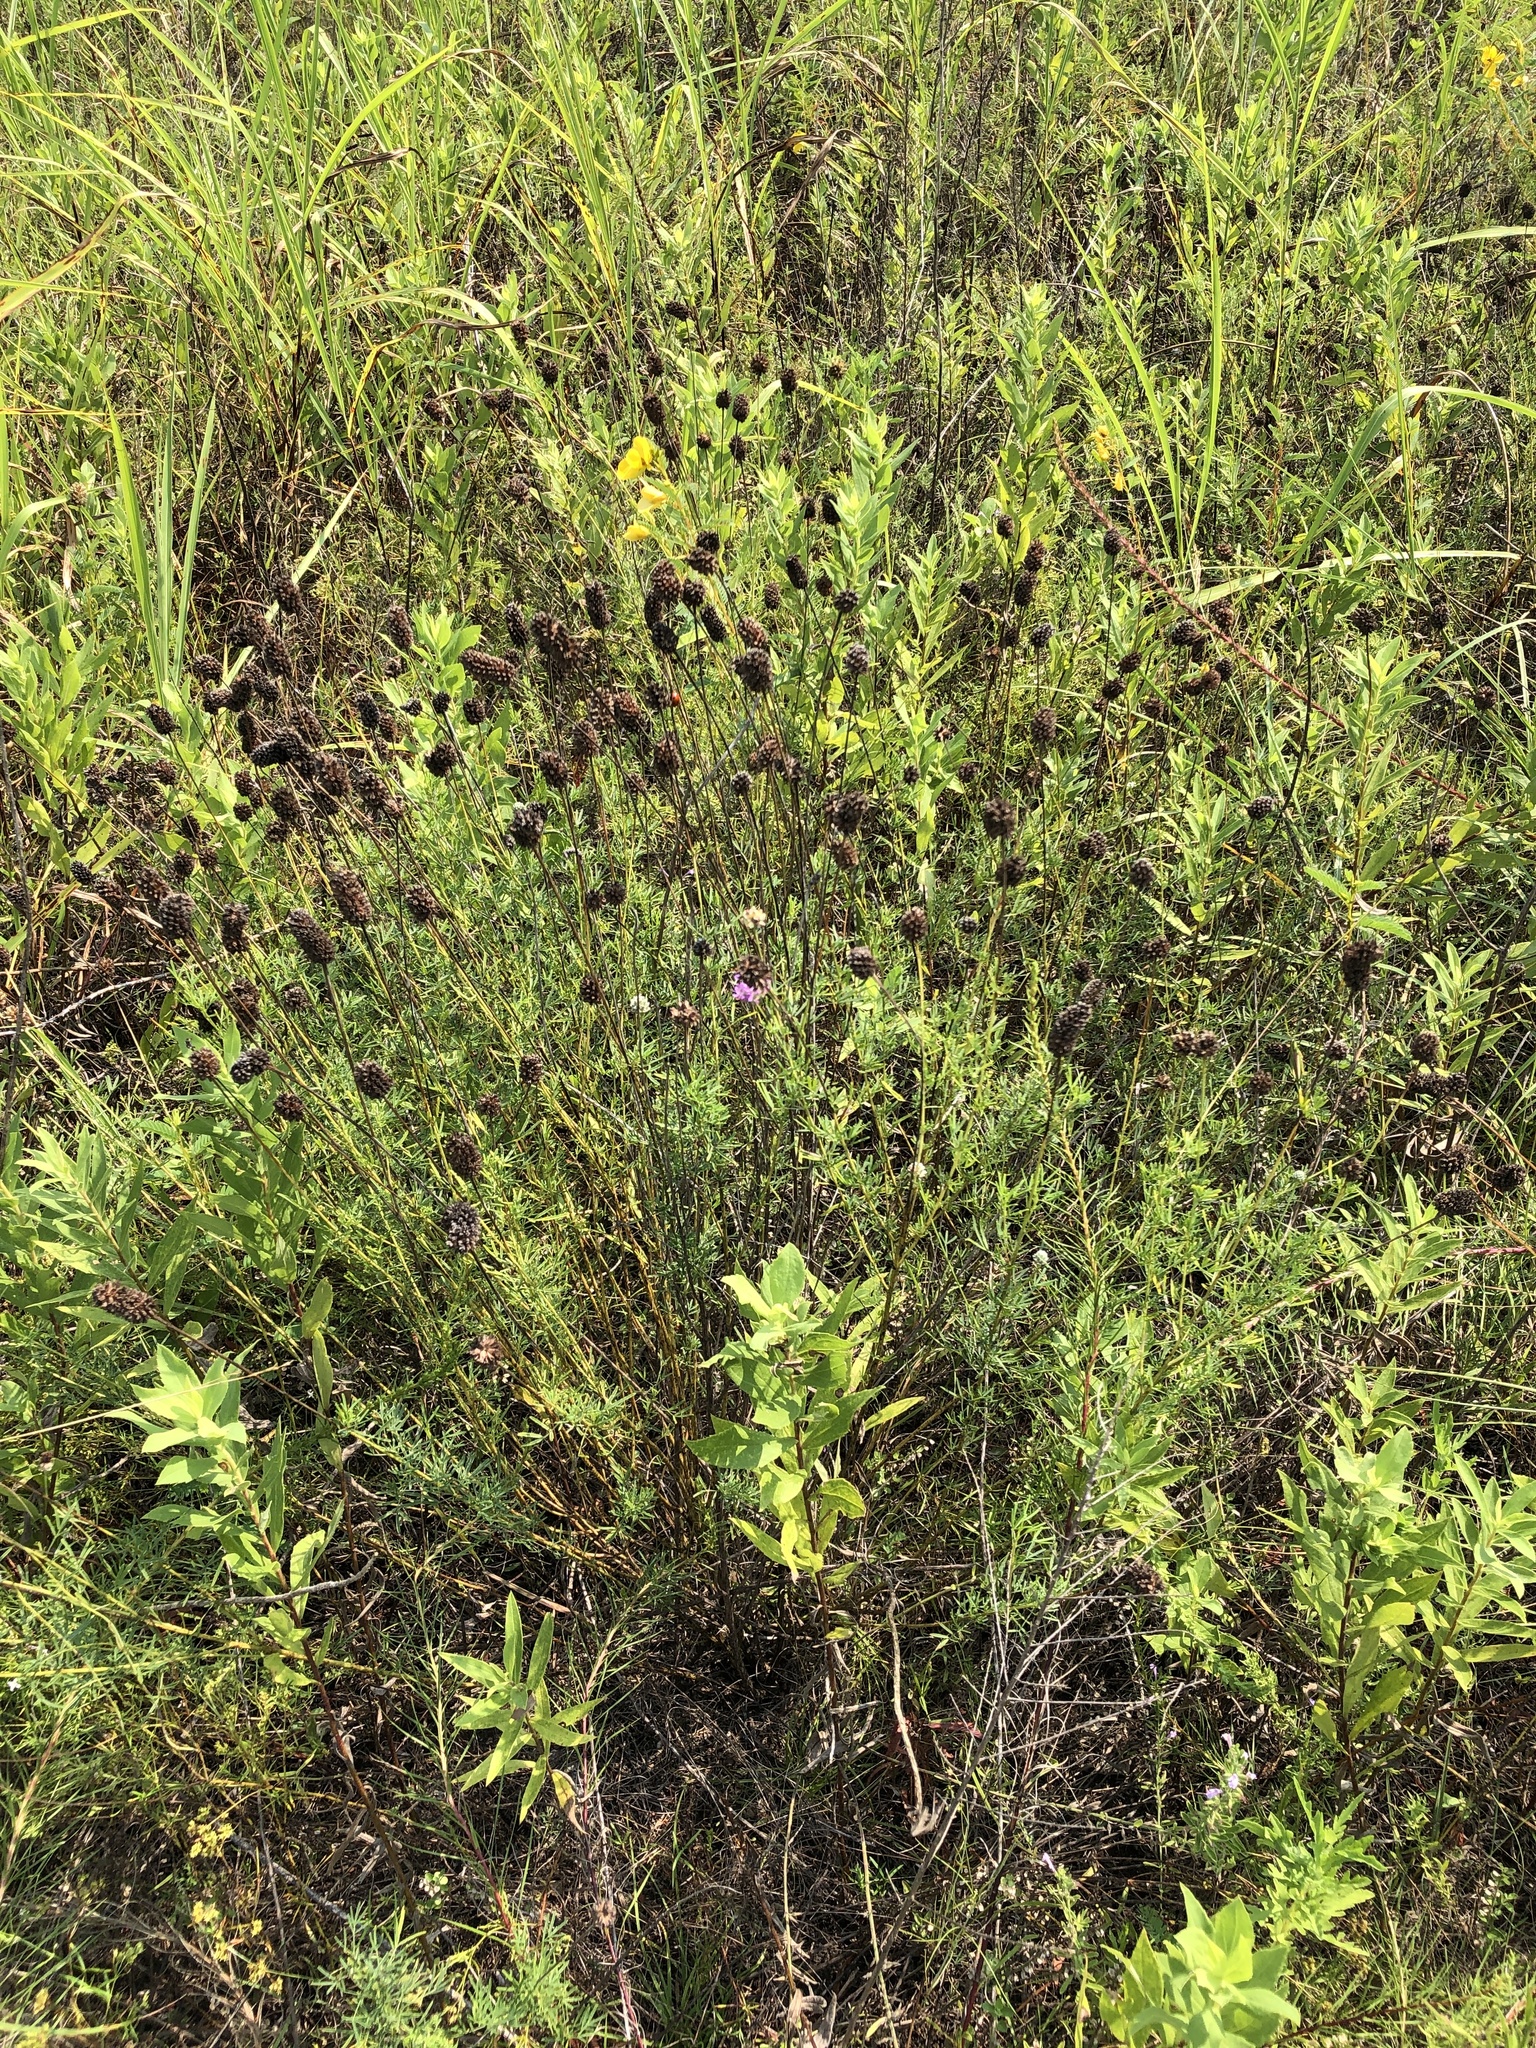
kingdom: Plantae
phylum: Tracheophyta
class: Magnoliopsida
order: Fabales
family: Fabaceae
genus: Dalea
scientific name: Dalea compacta
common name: Compact prairie-clover
